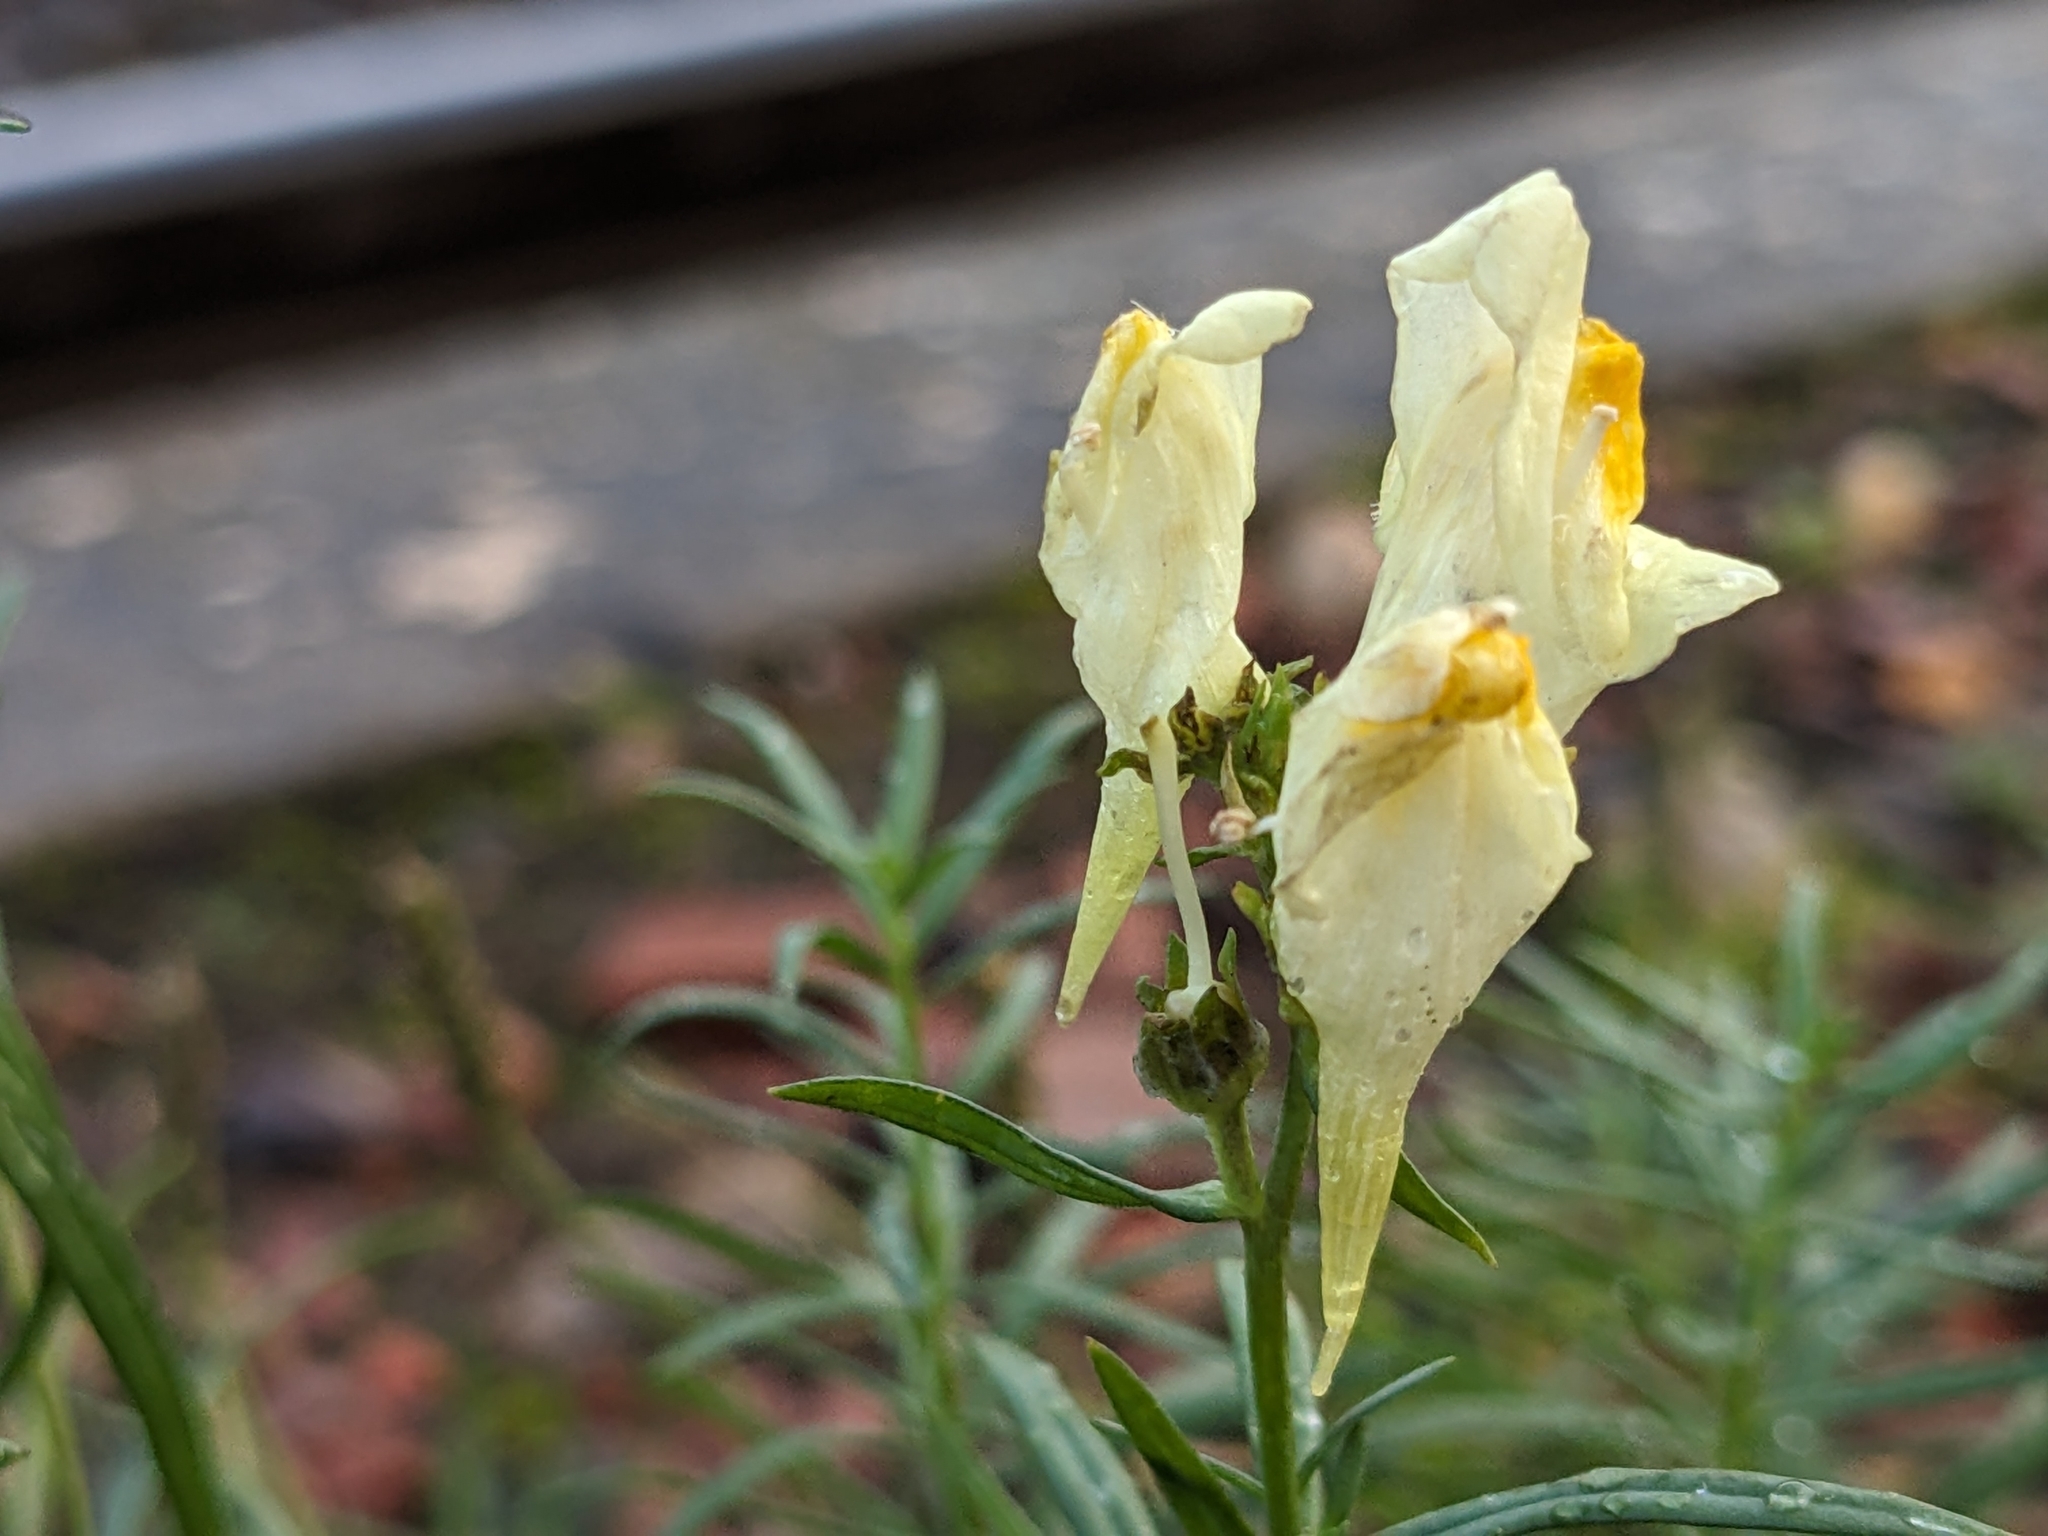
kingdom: Plantae
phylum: Tracheophyta
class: Magnoliopsida
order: Lamiales
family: Plantaginaceae
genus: Linaria
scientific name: Linaria vulgaris
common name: Butter and eggs
